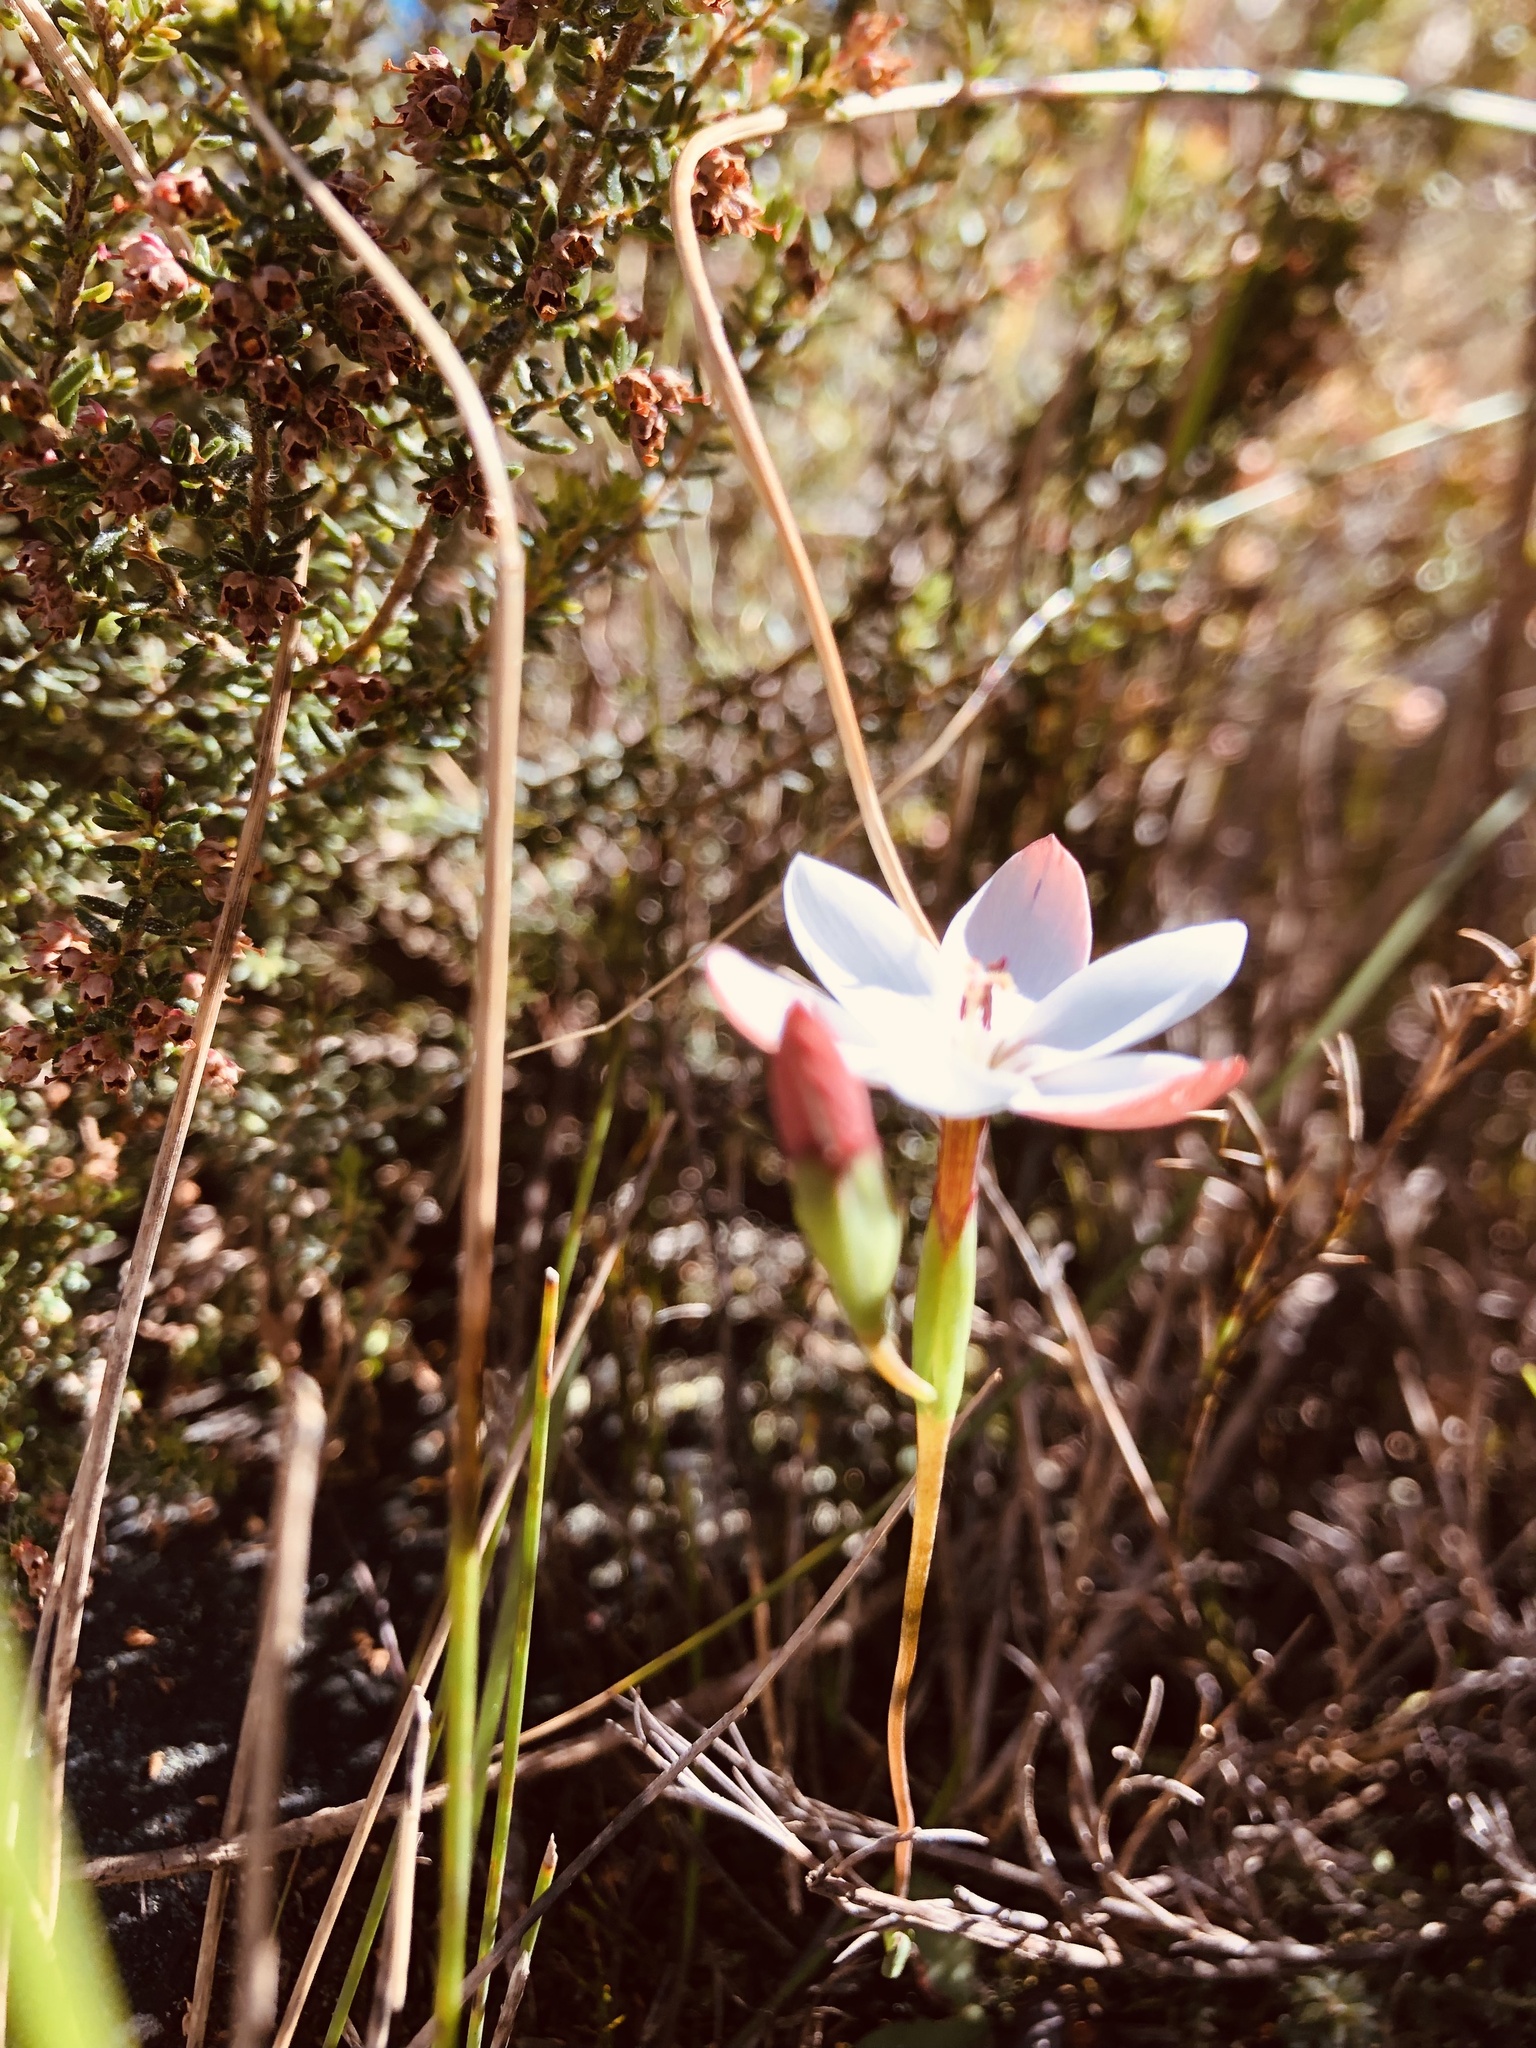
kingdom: Plantae
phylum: Tracheophyta
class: Liliopsida
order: Asparagales
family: Iridaceae
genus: Geissorhiza
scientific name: Geissorhiza ovata
